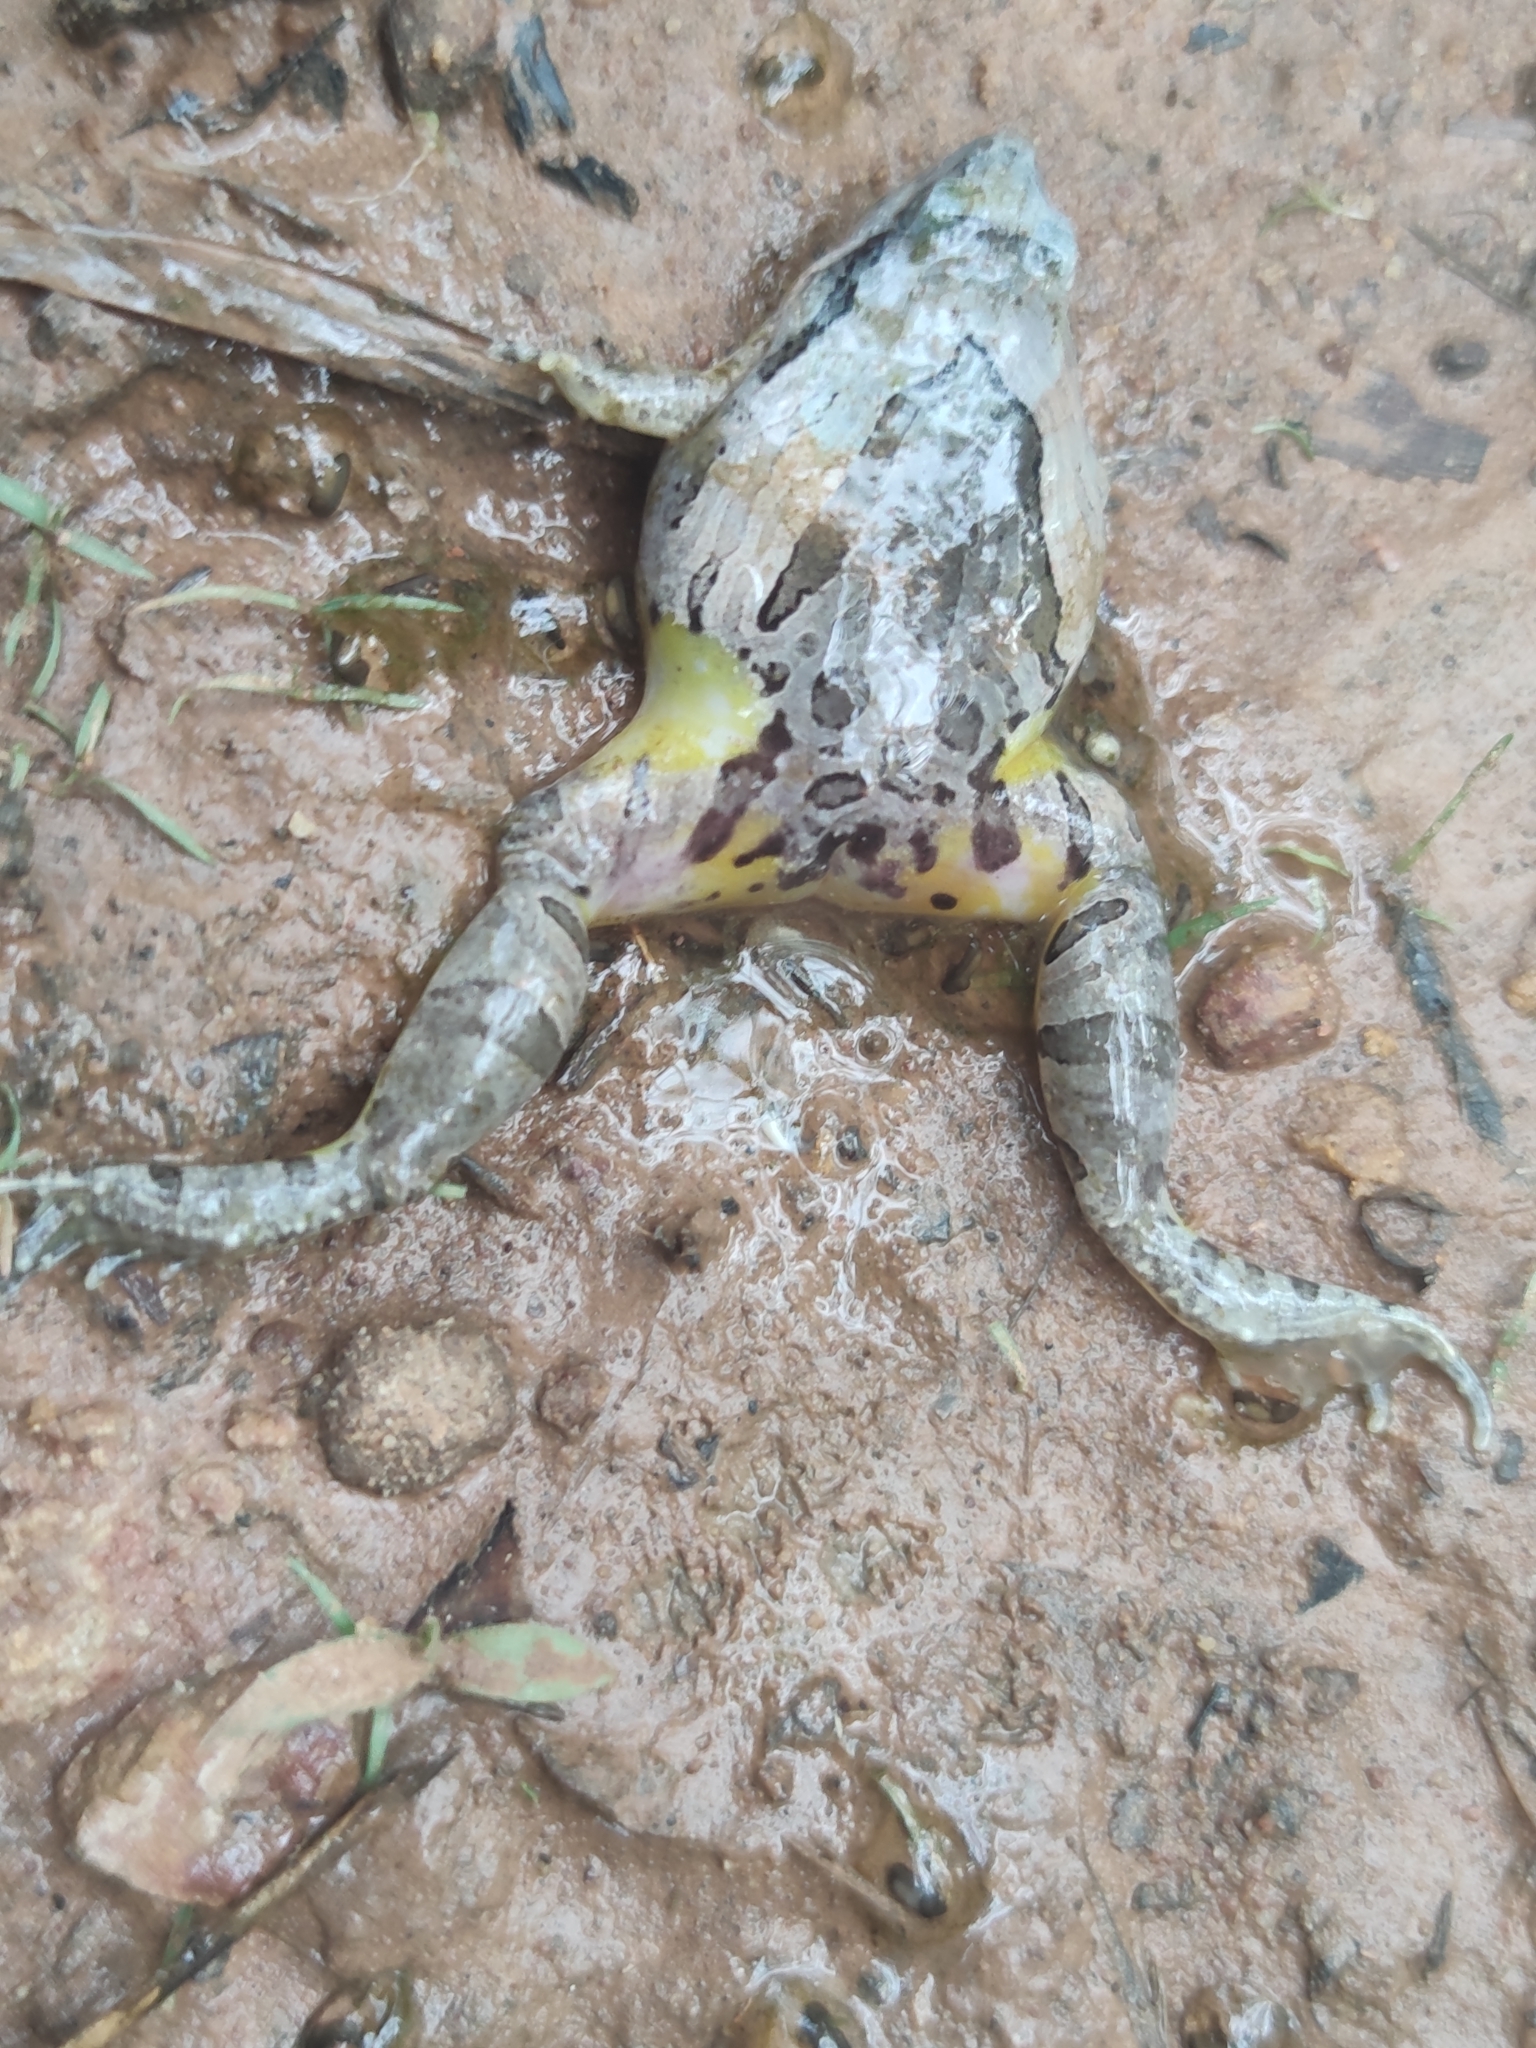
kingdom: Animalia
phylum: Chordata
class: Amphibia
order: Anura
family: Microhylidae
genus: Microhyla
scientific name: Microhyla pulchra
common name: Beautiful pygmy frog
